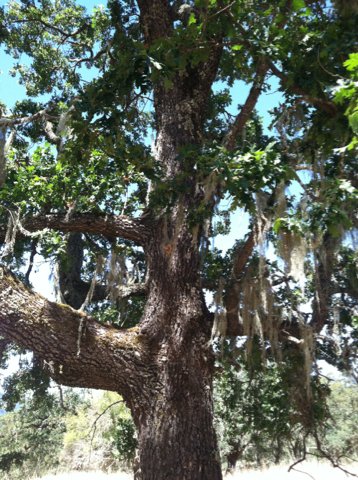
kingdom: Plantae
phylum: Tracheophyta
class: Magnoliopsida
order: Fagales
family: Fagaceae
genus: Quercus
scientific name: Quercus lobata
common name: Valley oak
